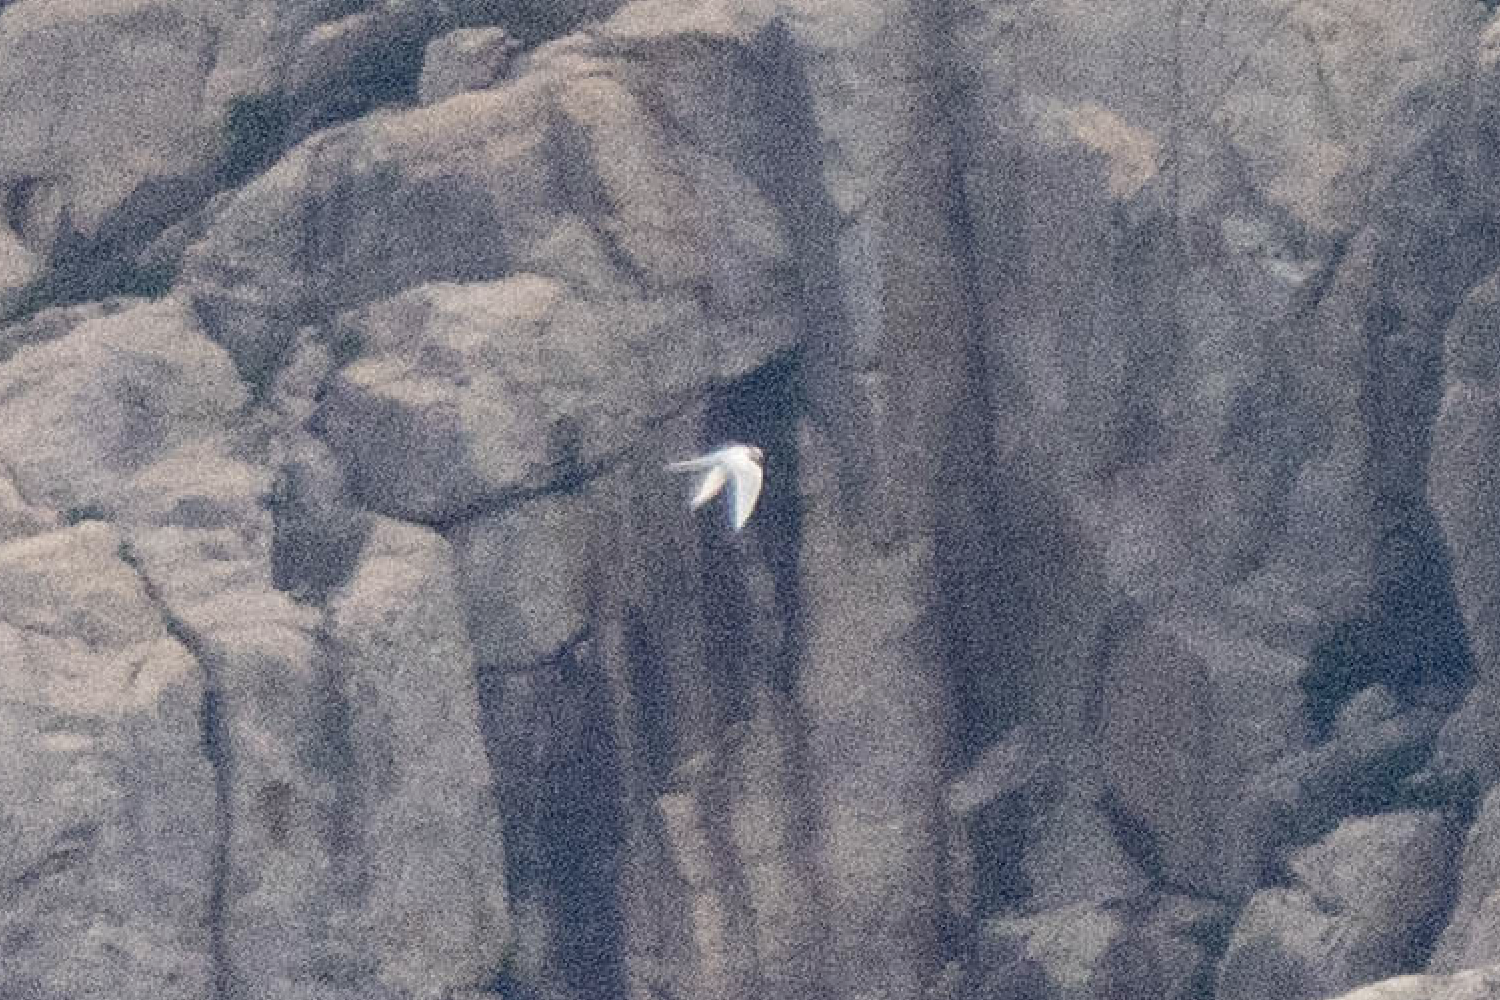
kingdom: Animalia
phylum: Chordata
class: Aves
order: Charadriiformes
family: Laridae
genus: Sterna
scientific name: Sterna sumatrana
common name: Black-naped tern
